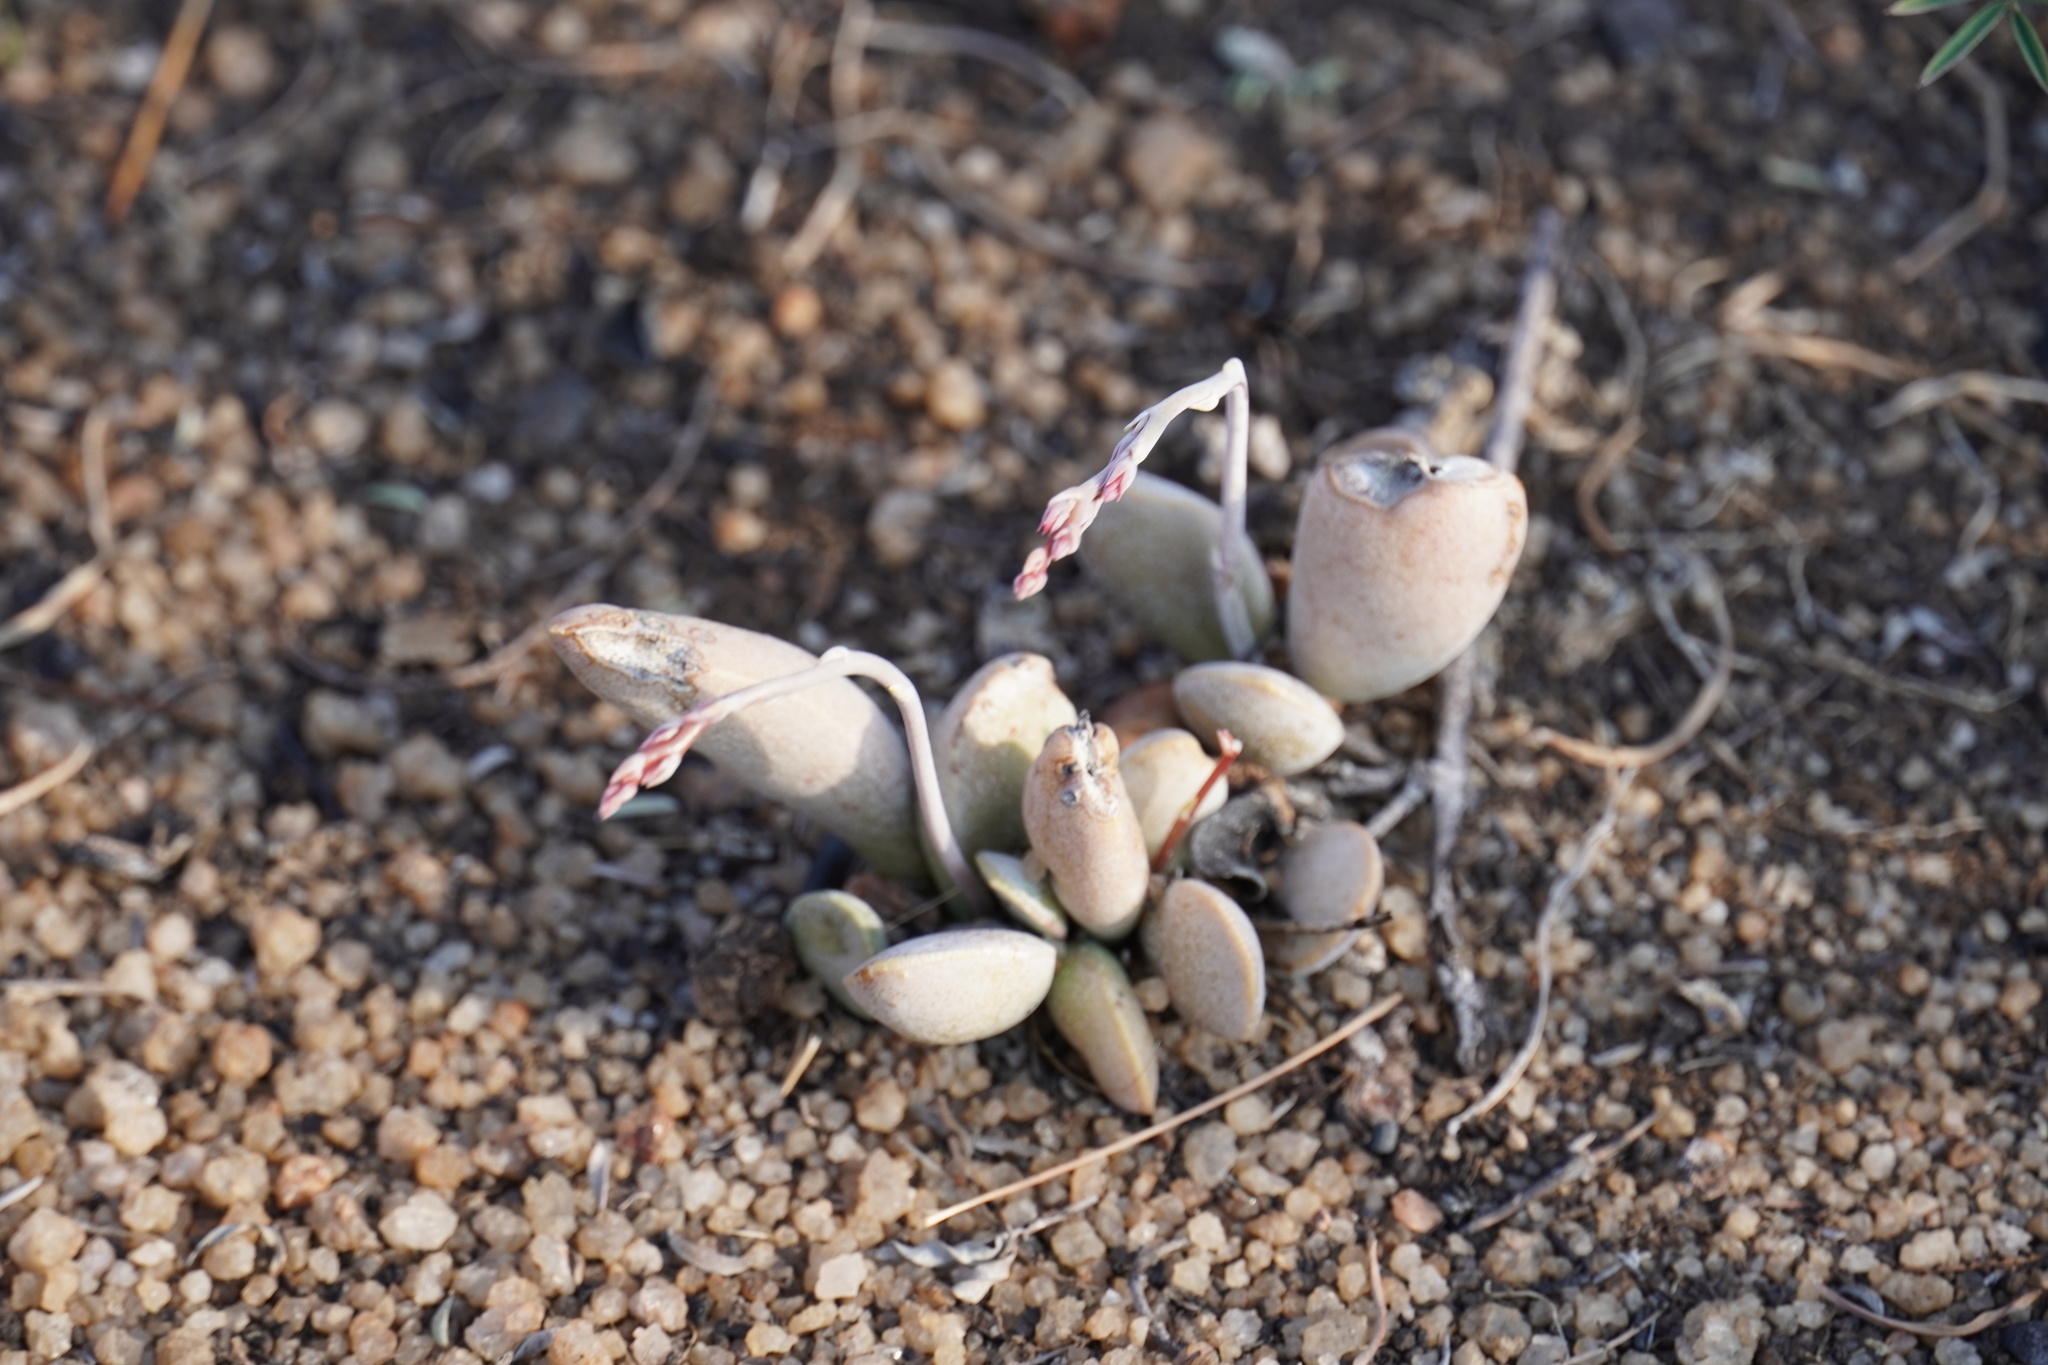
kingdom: Plantae
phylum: Tracheophyta
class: Magnoliopsida
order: Saxifragales
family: Crassulaceae
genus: Adromischus
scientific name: Adromischus umbraticola
